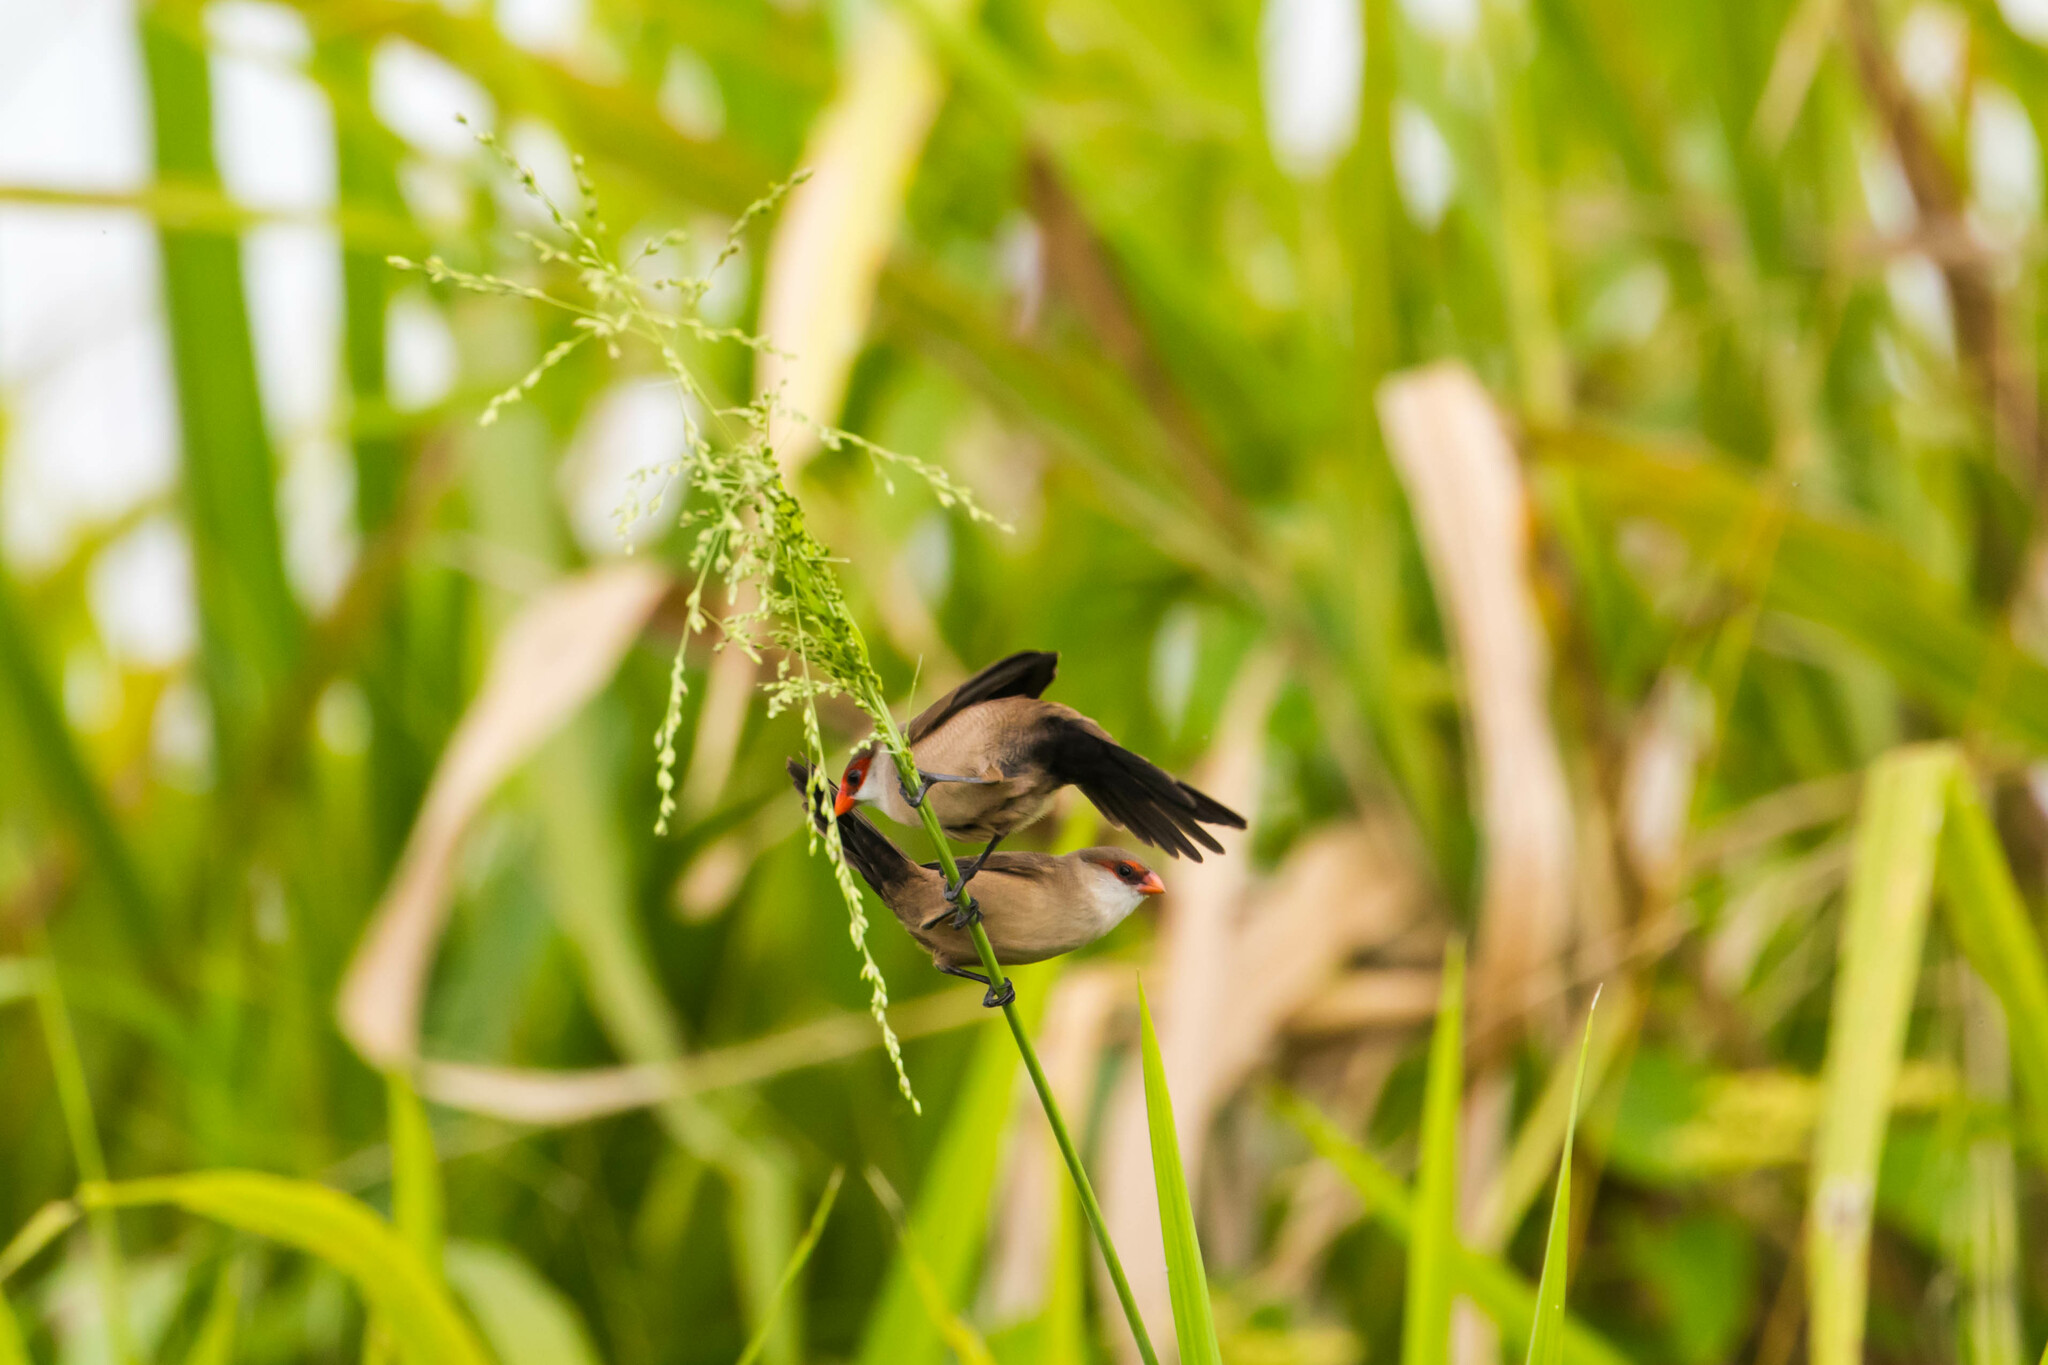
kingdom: Animalia
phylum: Chordata
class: Aves
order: Passeriformes
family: Estrildidae
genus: Estrilda
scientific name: Estrilda astrild
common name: Common waxbill
